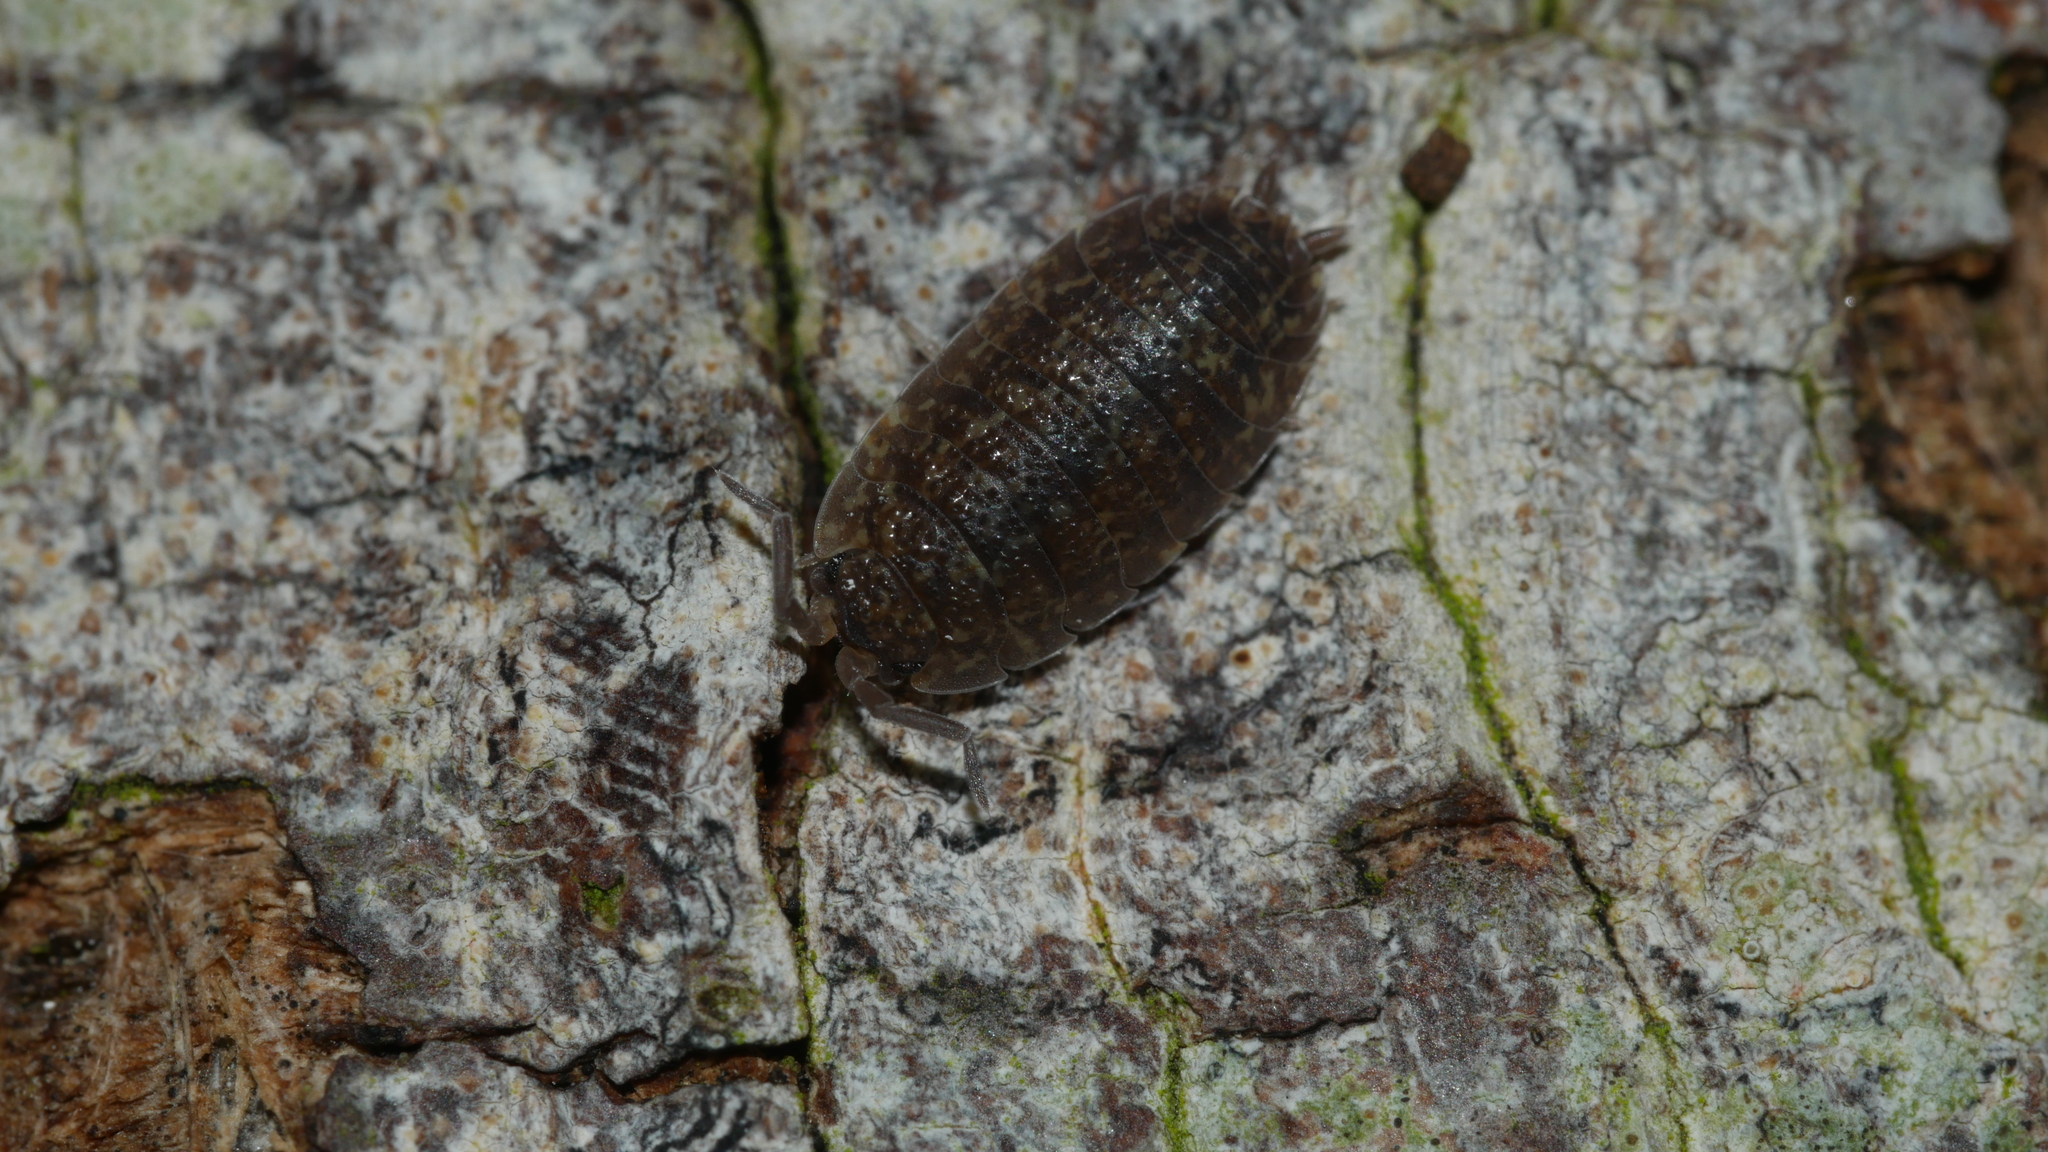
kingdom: Animalia
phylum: Arthropoda
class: Malacostraca
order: Isopoda
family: Porcellionidae
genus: Porcellio
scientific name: Porcellio scaber
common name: Common rough woodlouse
